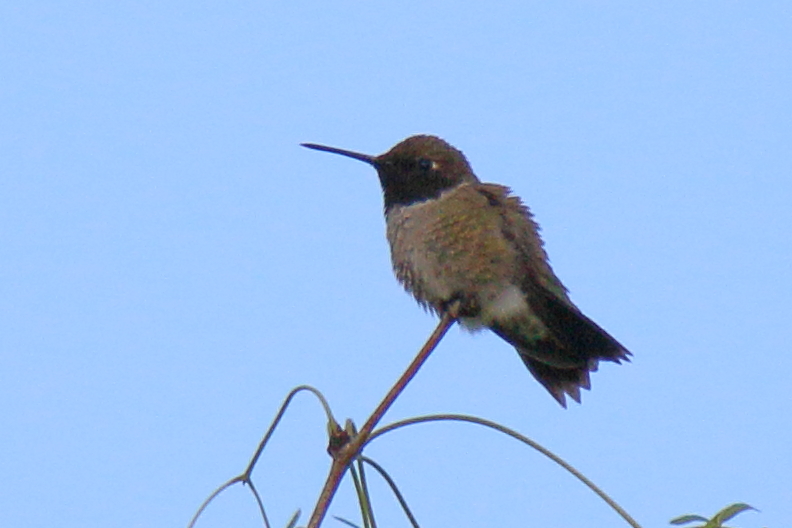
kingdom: Animalia
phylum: Chordata
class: Aves
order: Apodiformes
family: Trochilidae
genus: Archilochus
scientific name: Archilochus alexandri
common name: Black-chinned hummingbird
